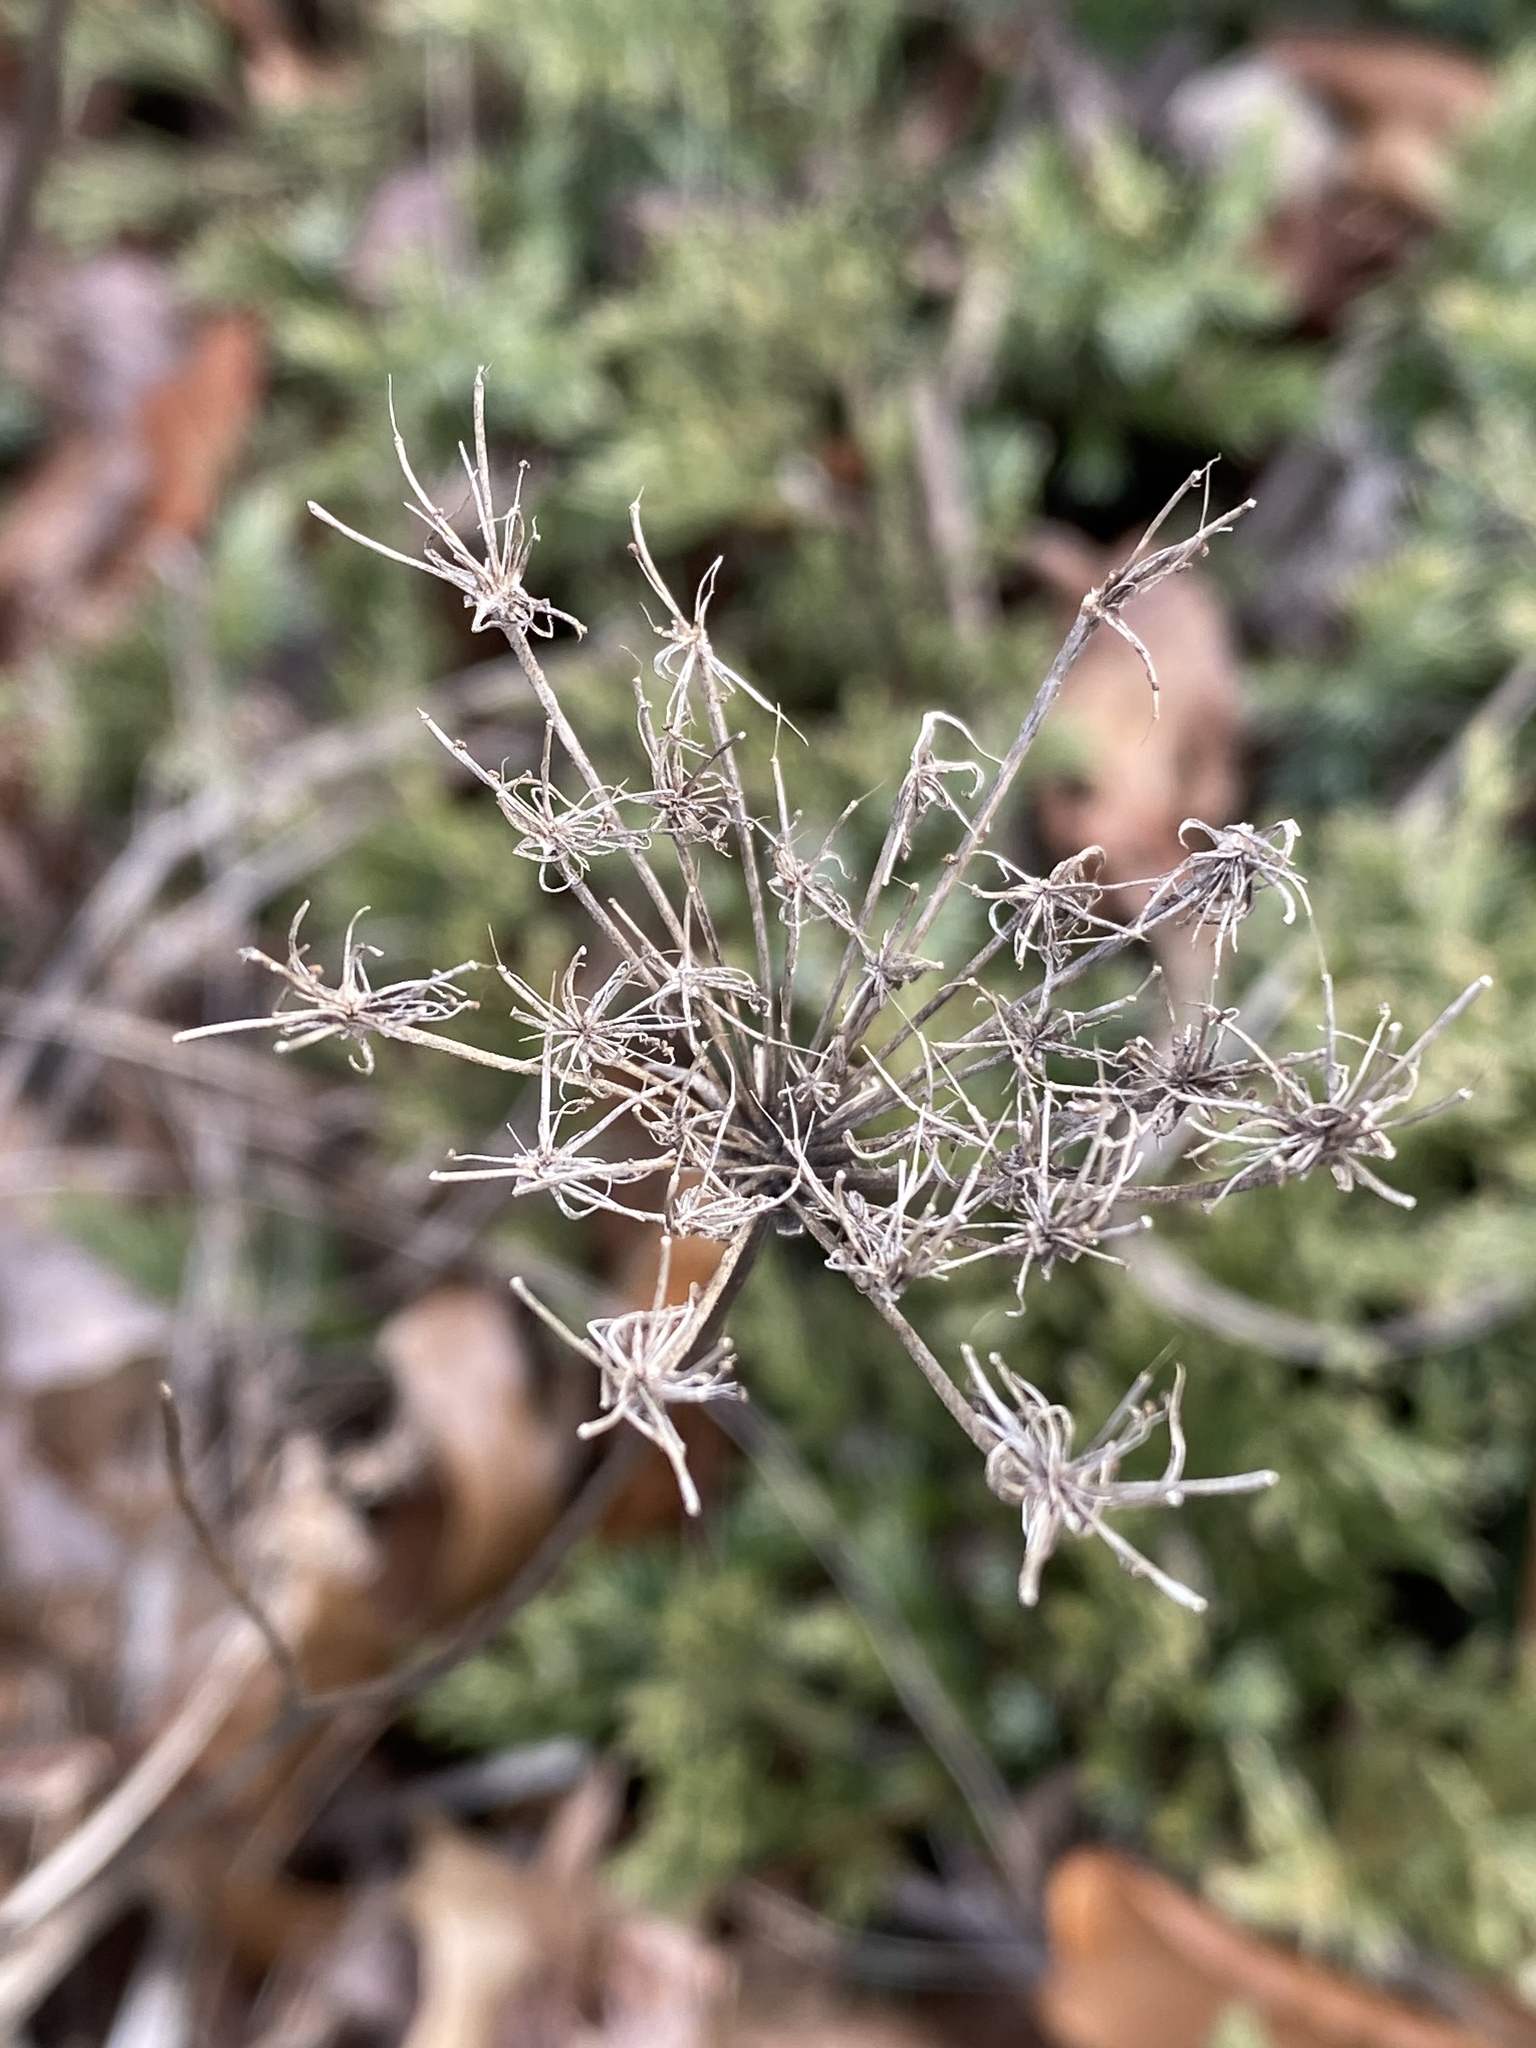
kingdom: Plantae
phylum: Tracheophyta
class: Magnoliopsida
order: Apiales
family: Apiaceae
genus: Daucus
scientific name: Daucus carota
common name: Wild carrot
